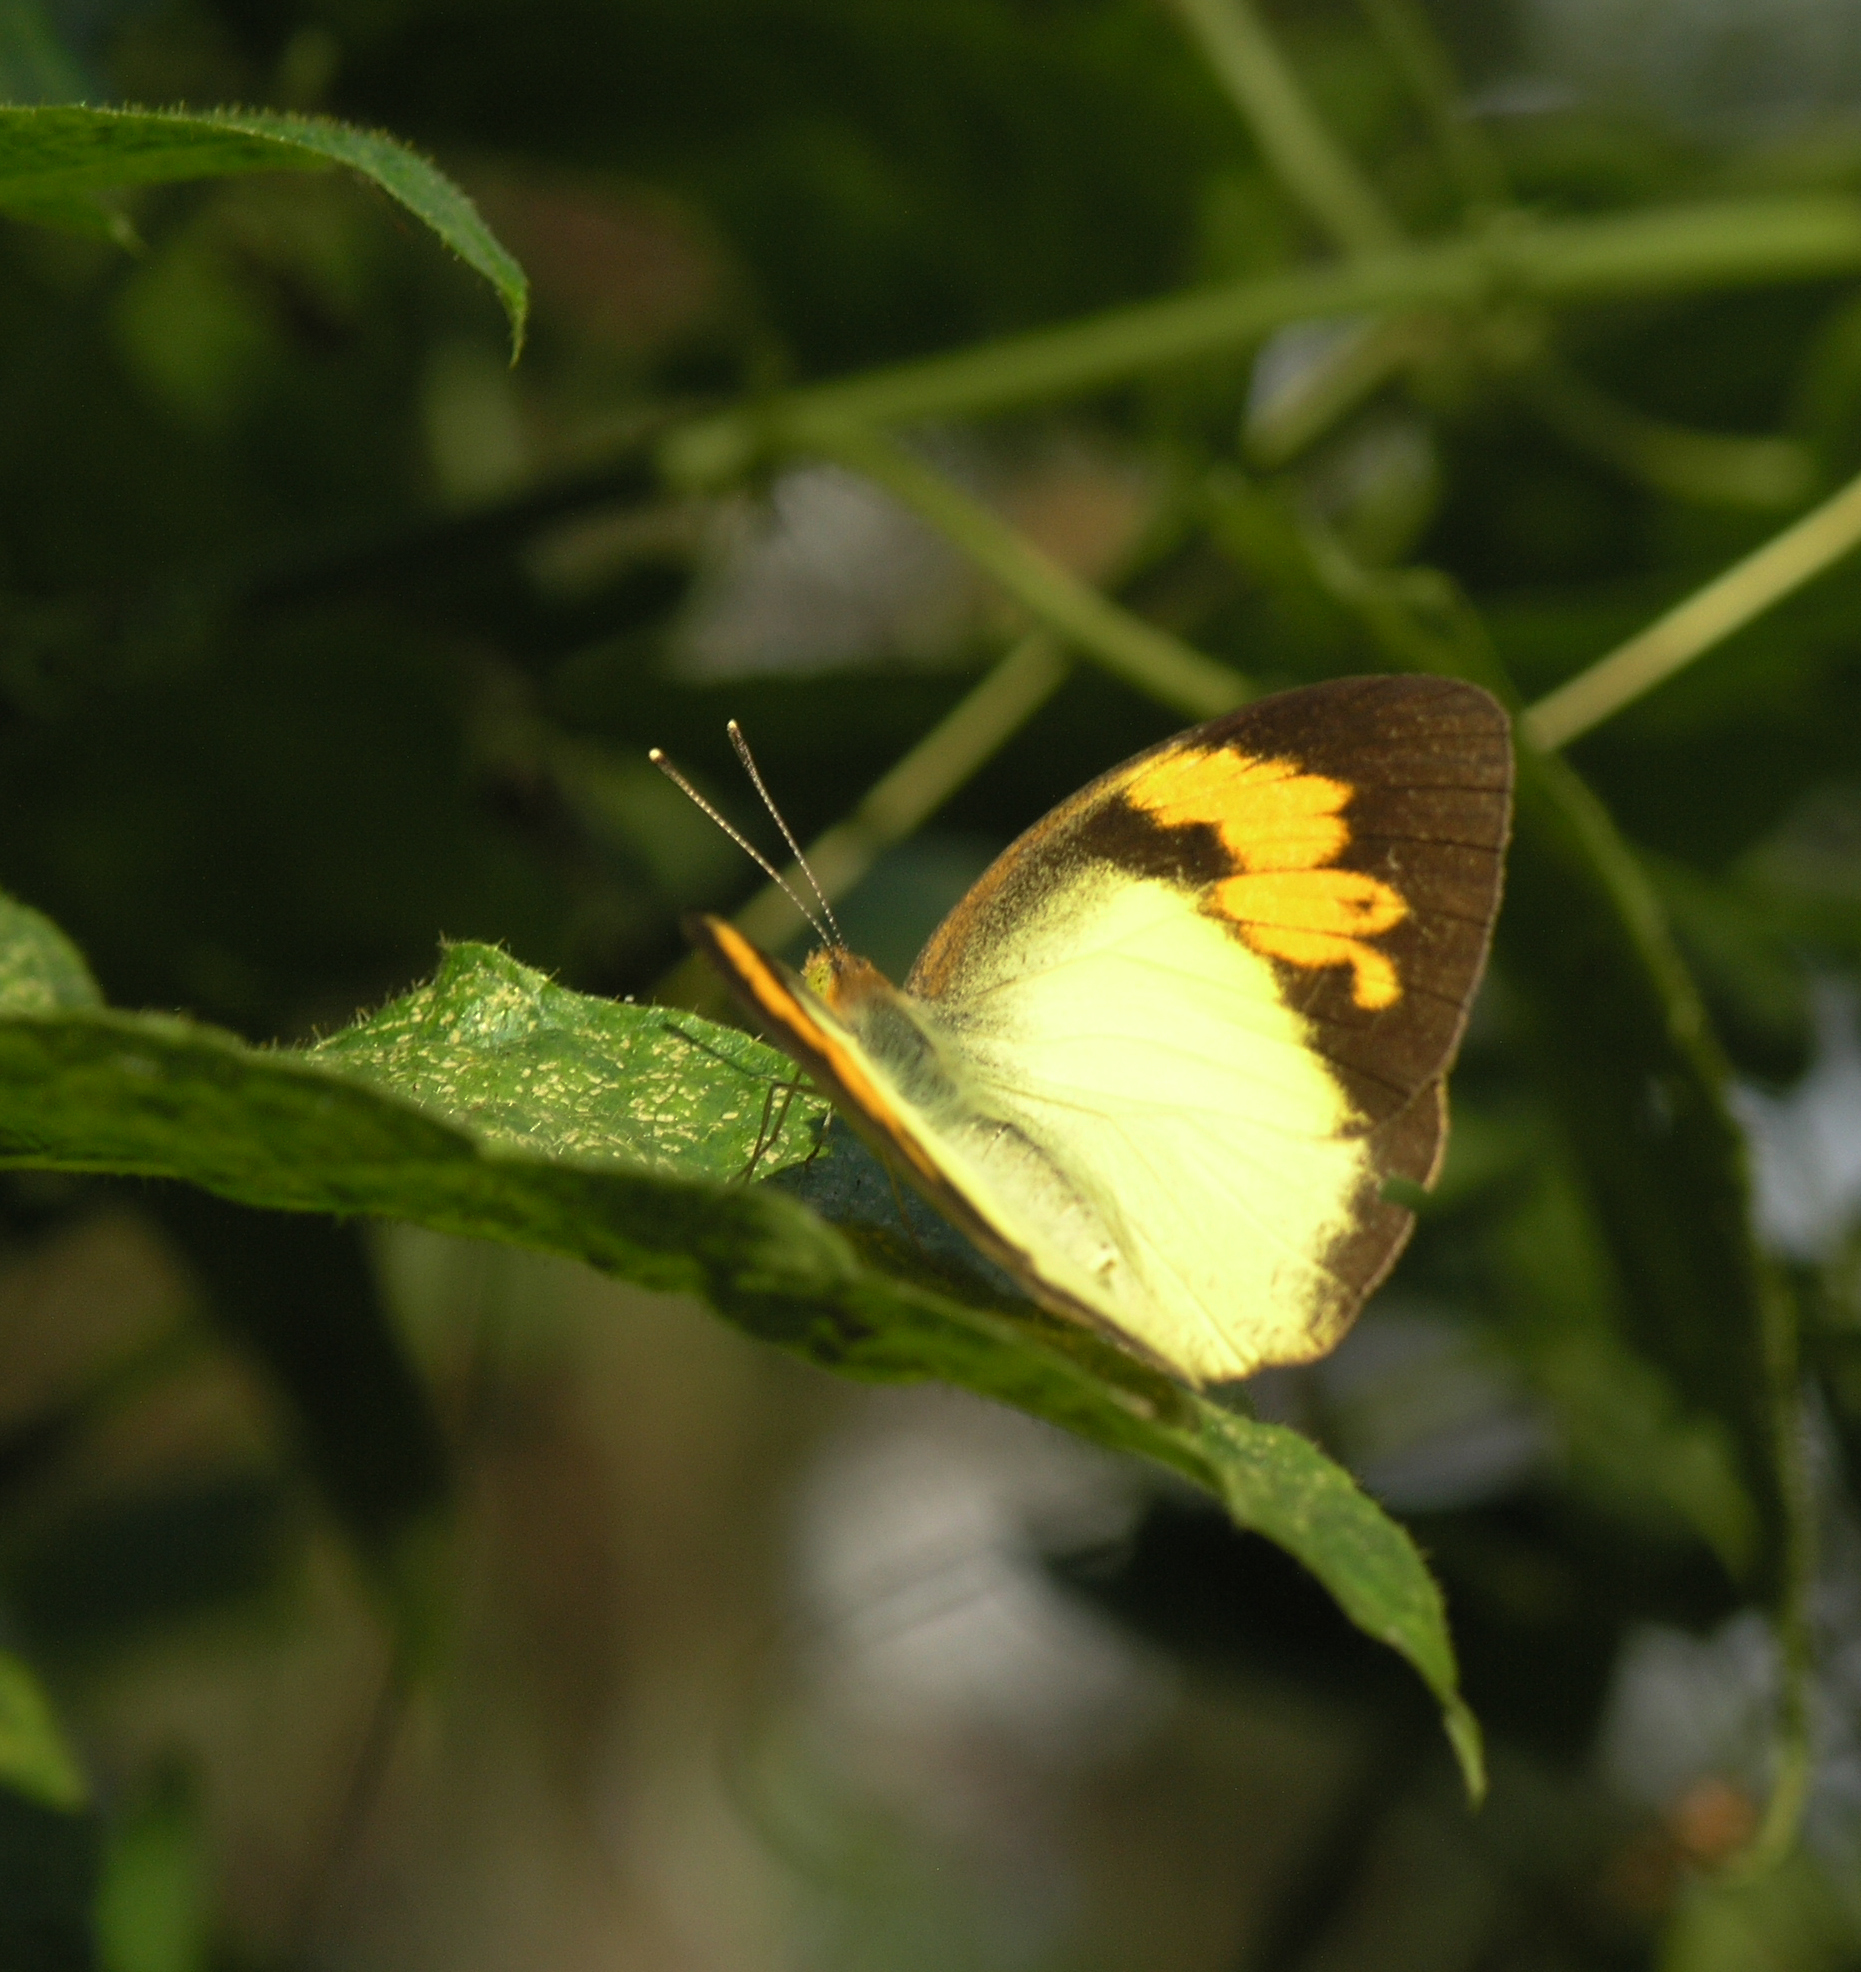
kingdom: Animalia
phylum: Arthropoda
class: Insecta
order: Lepidoptera
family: Pieridae
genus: Ixias
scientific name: Ixias pyrene
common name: Yellow orange tip
